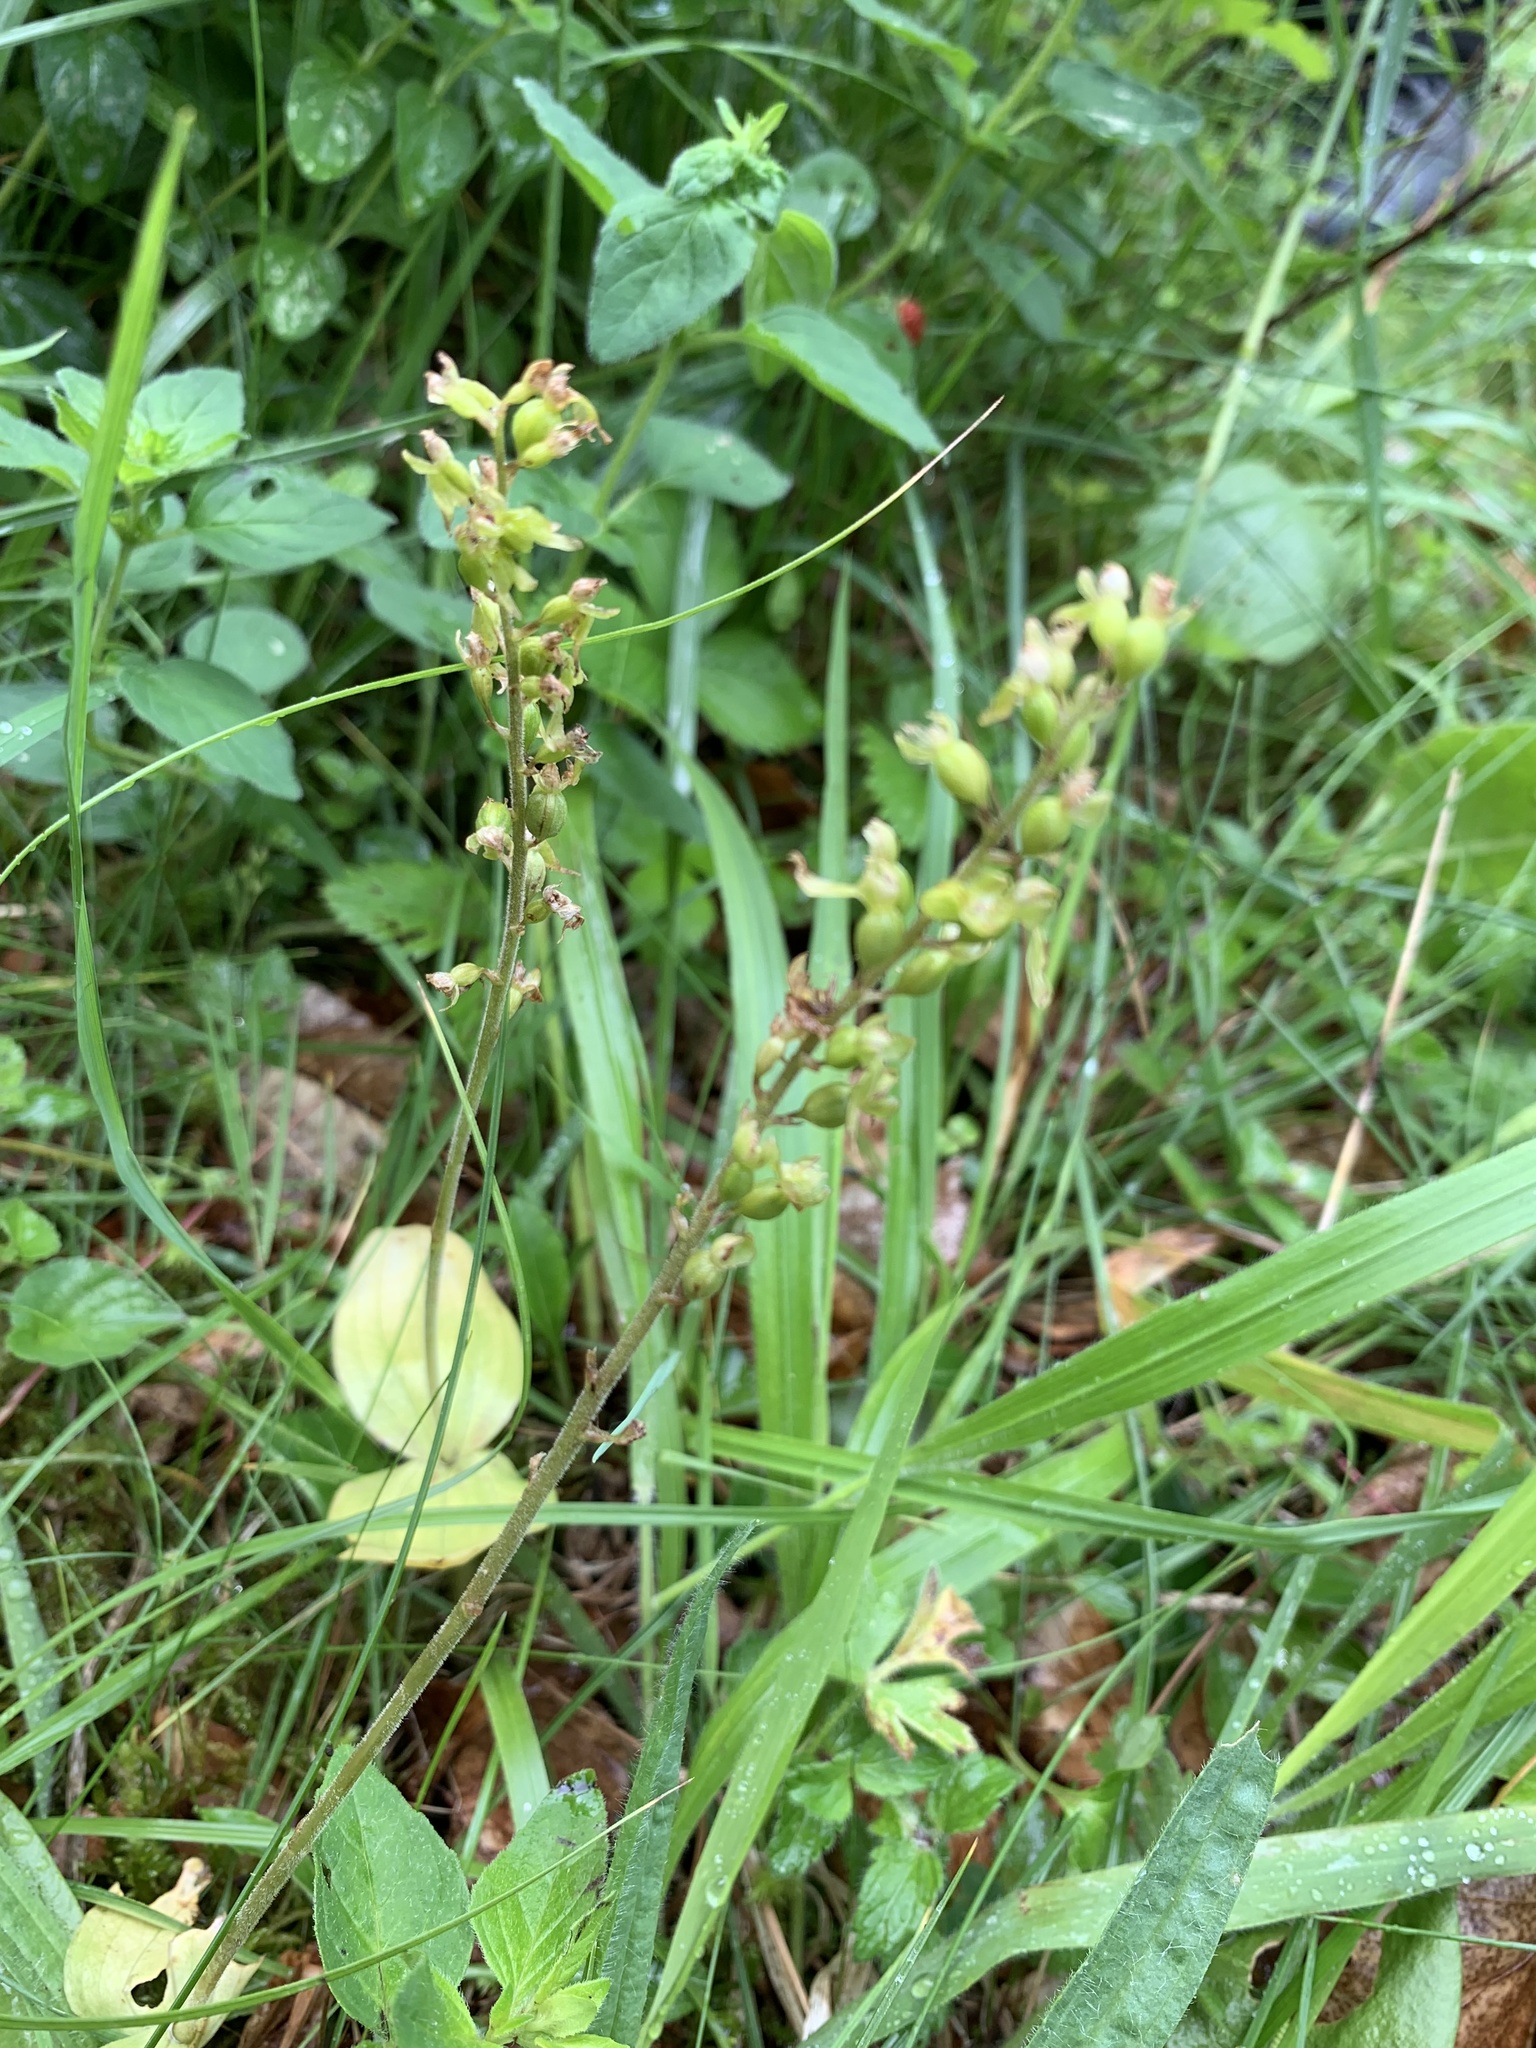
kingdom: Plantae
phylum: Tracheophyta
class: Liliopsida
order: Asparagales
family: Orchidaceae
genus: Neottia
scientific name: Neottia ovata
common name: Common twayblade
